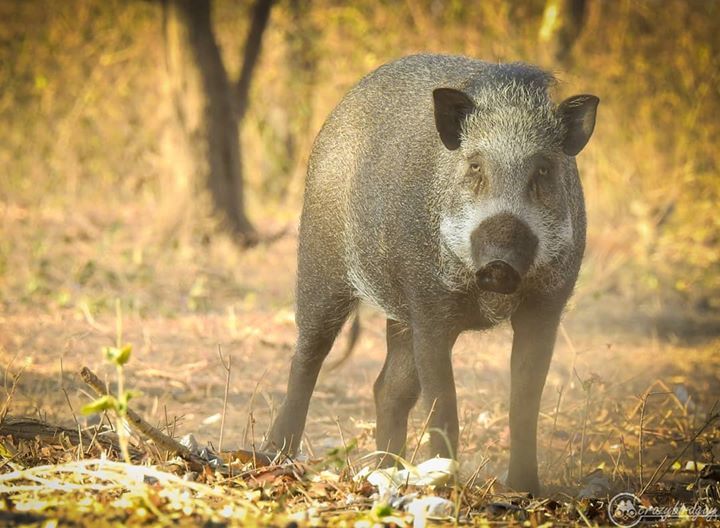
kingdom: Animalia
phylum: Chordata
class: Mammalia
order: Artiodactyla
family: Suidae
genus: Sus
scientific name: Sus scrofa
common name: Wild boar
